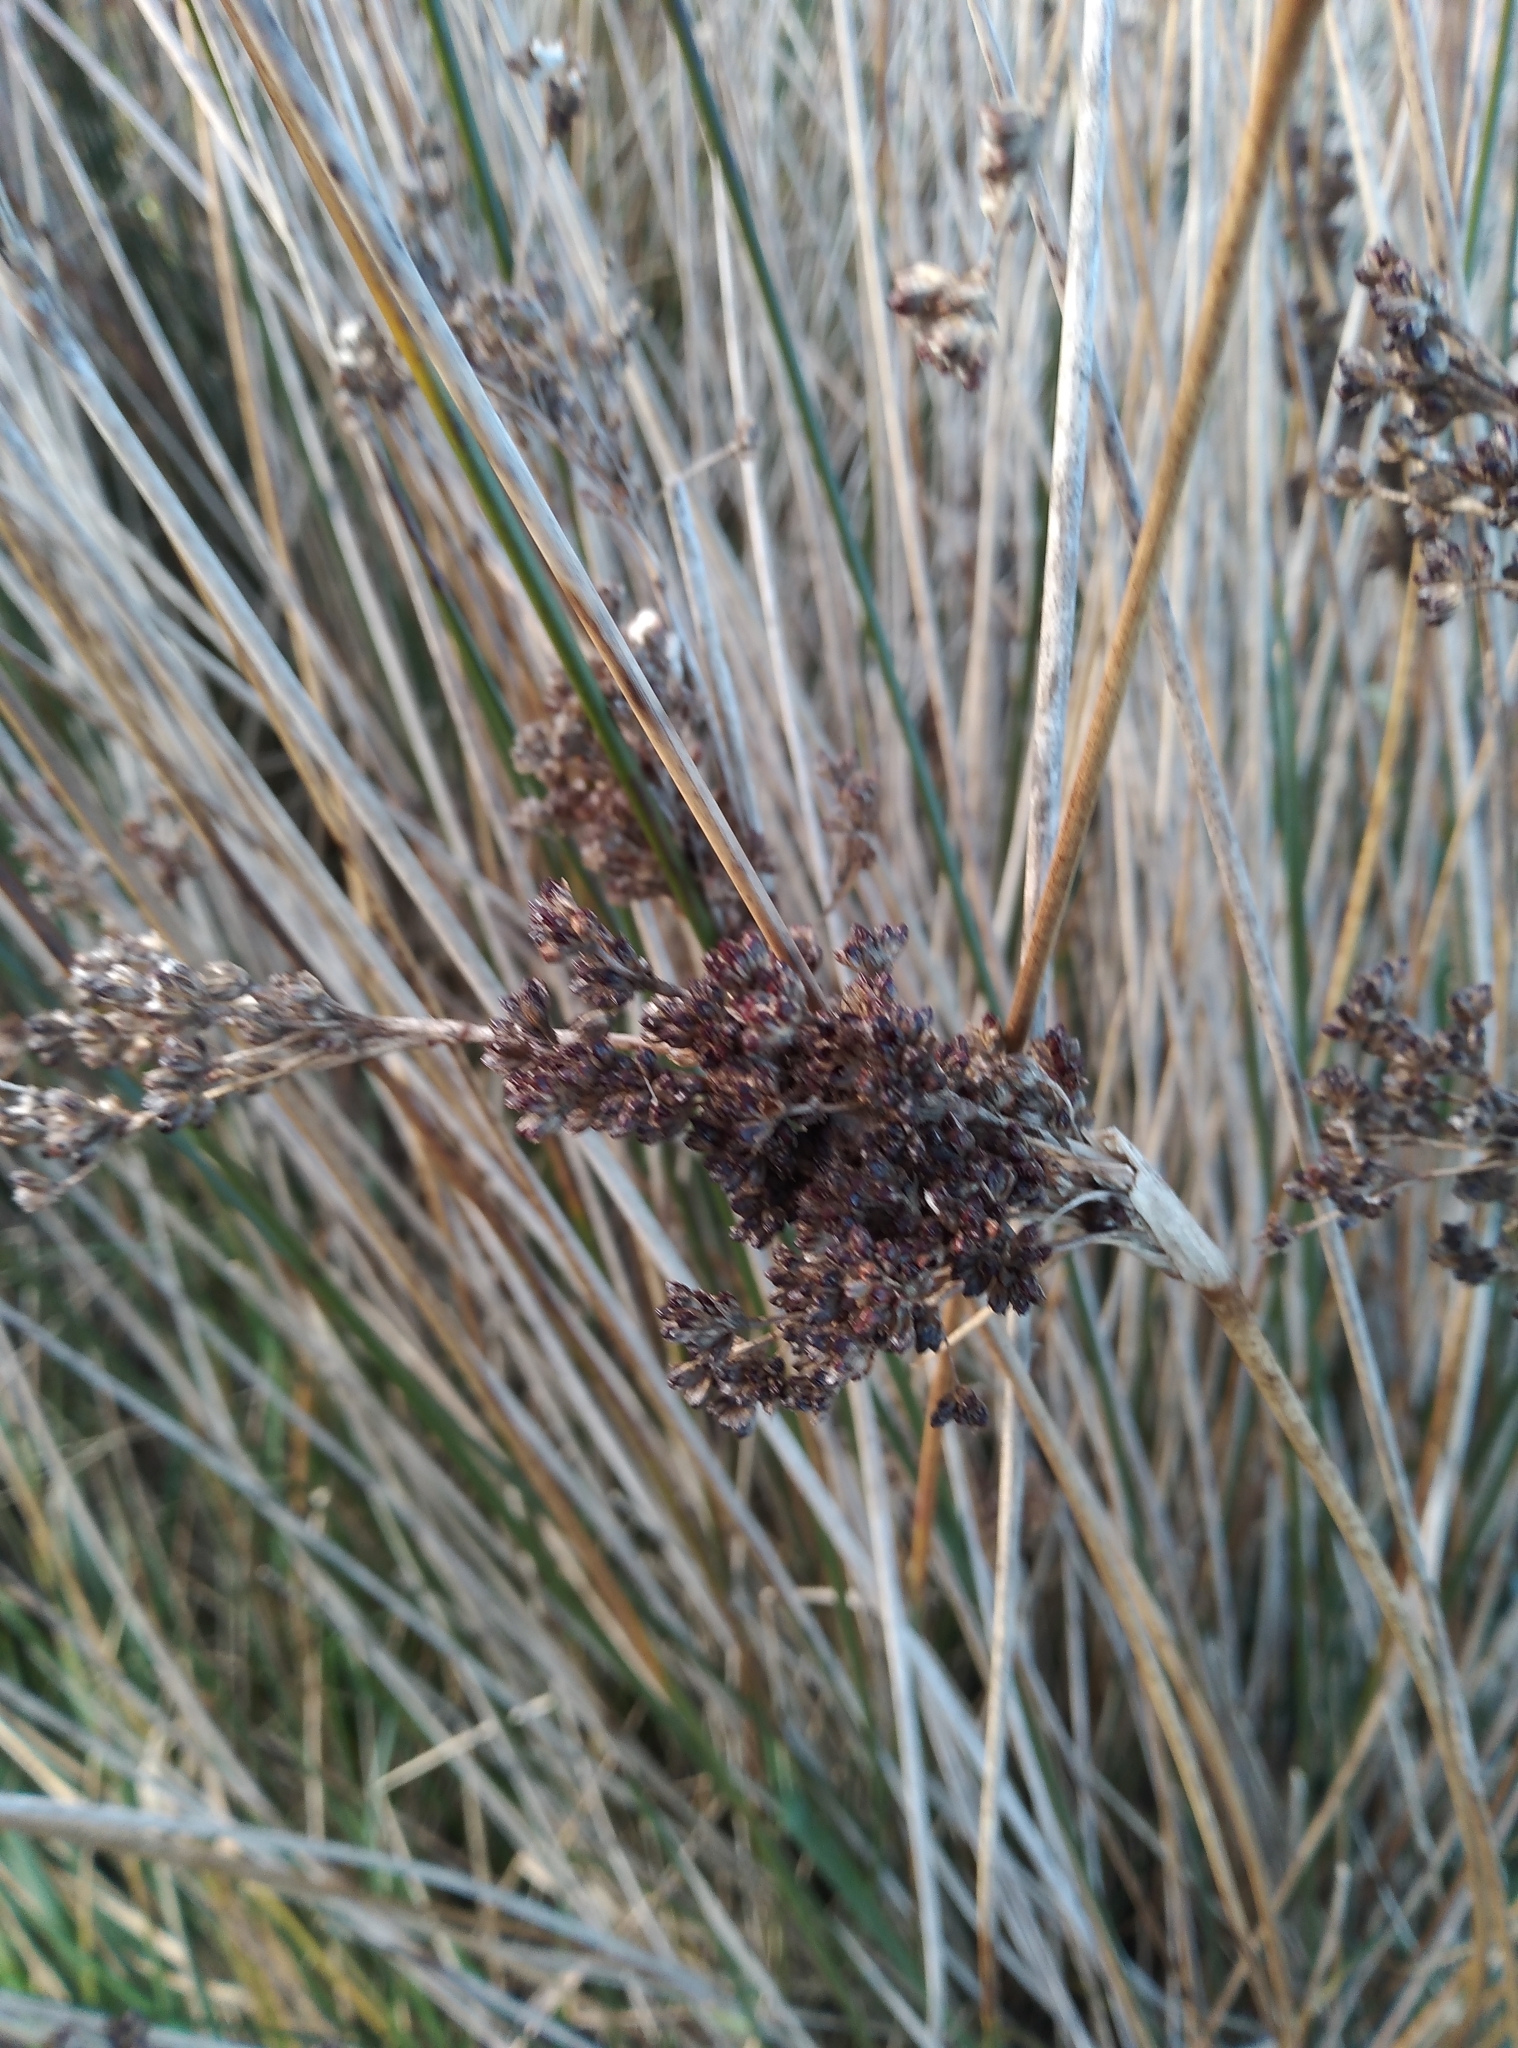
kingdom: Plantae
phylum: Tracheophyta
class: Liliopsida
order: Poales
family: Juncaceae
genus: Juncus
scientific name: Juncus kraussii
